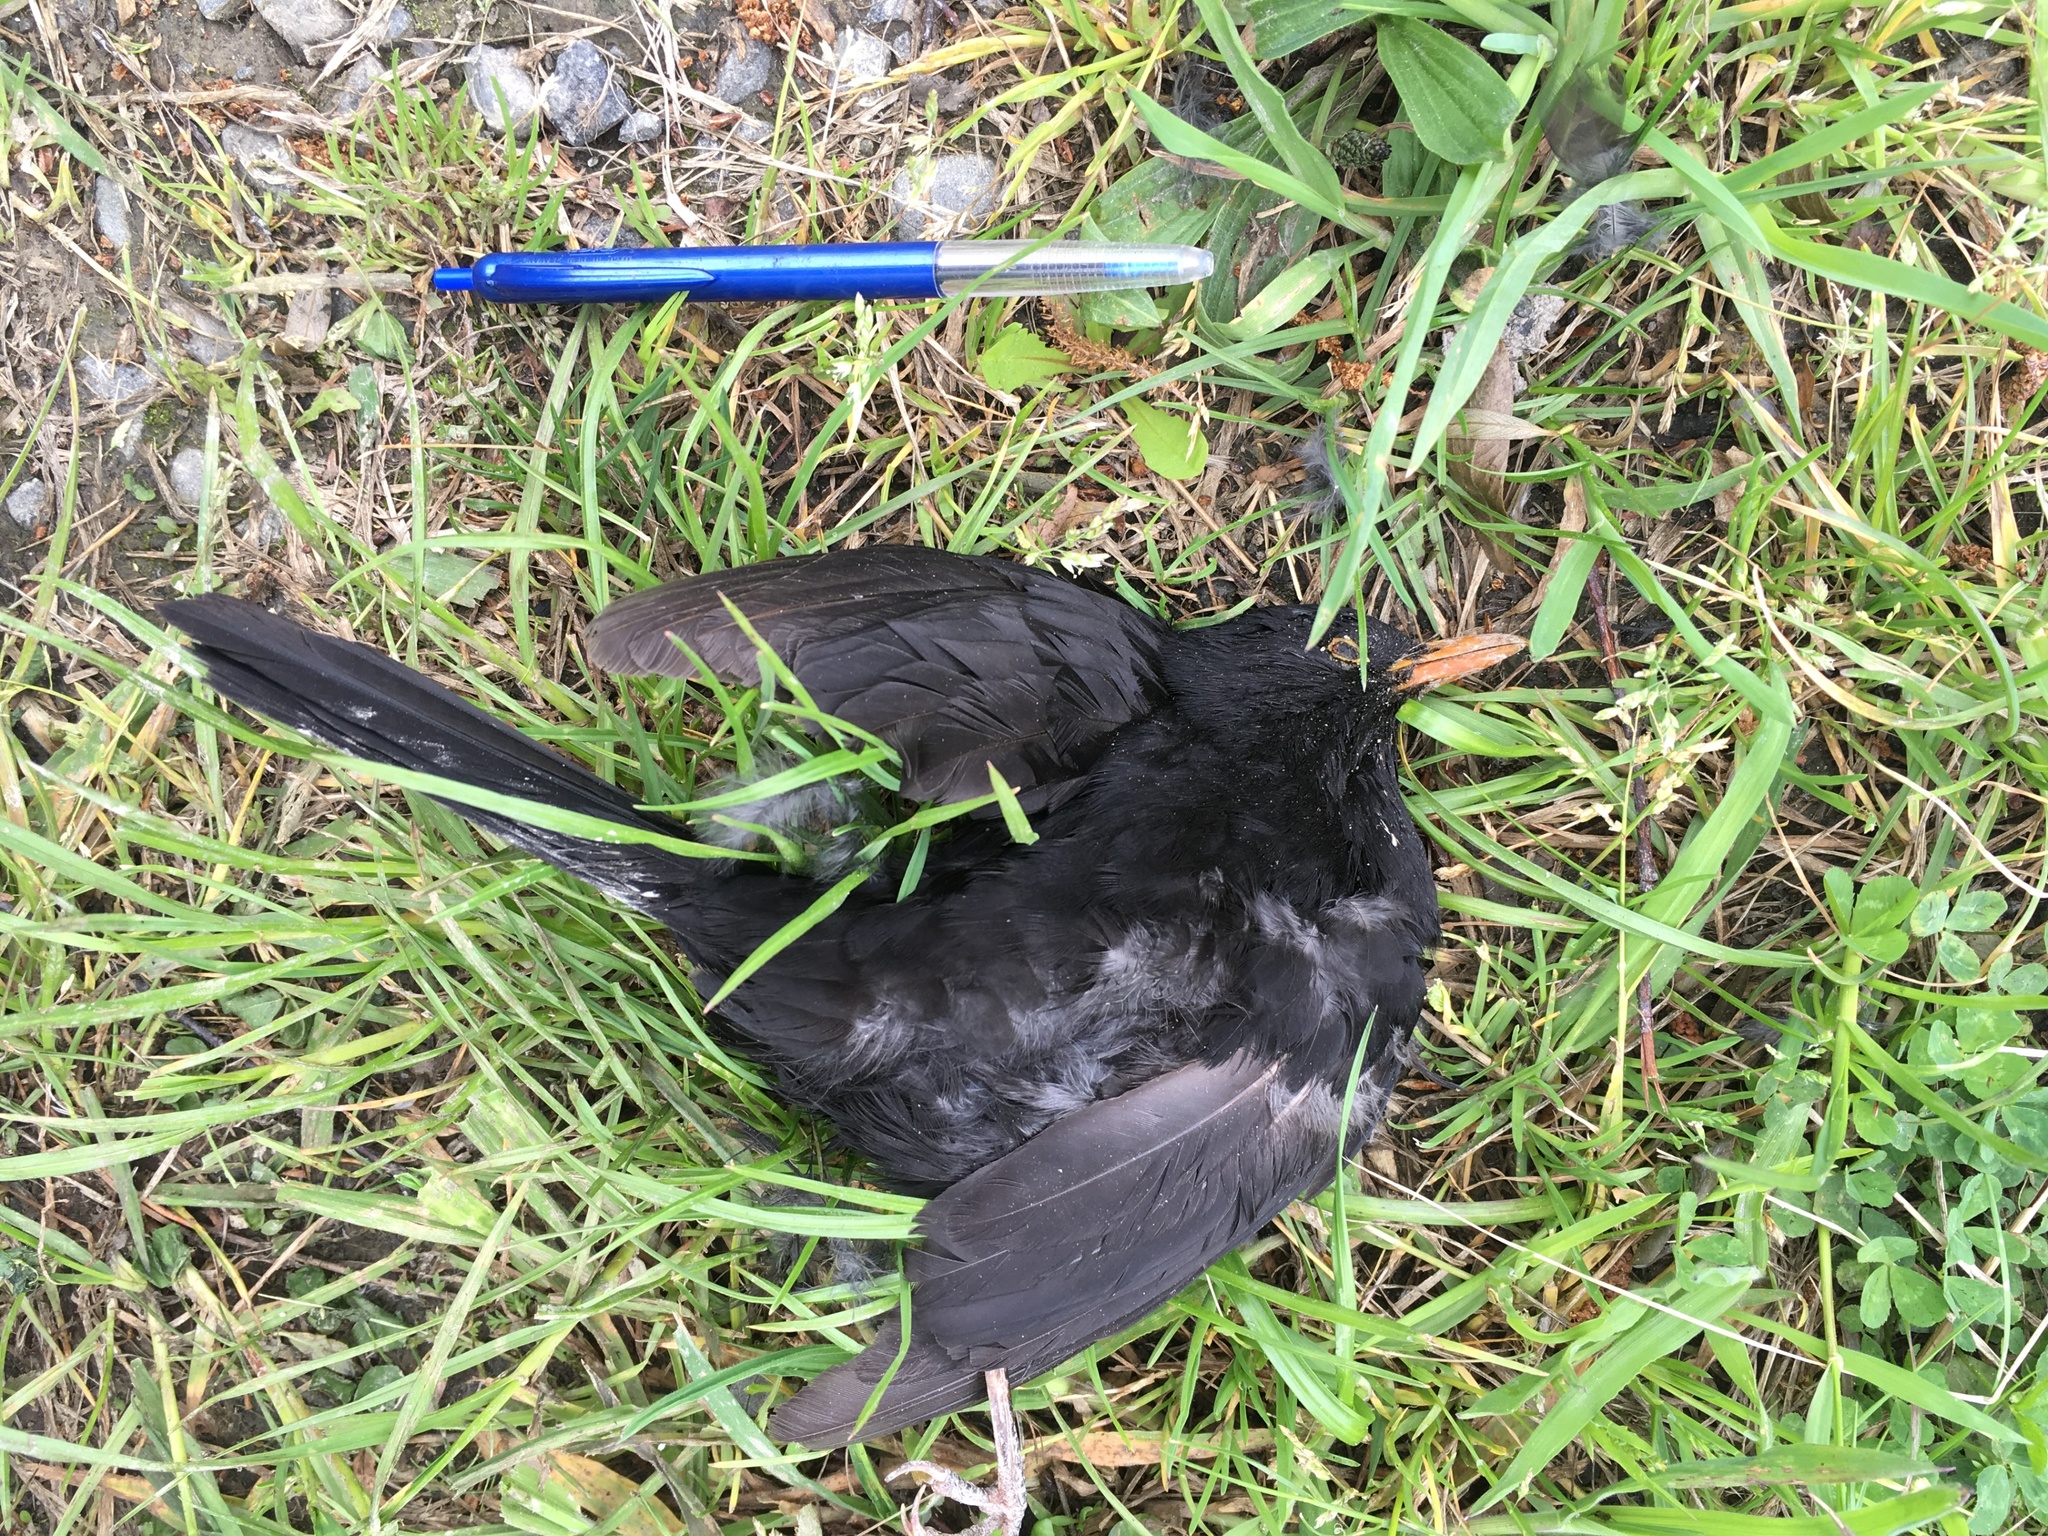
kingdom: Animalia
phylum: Chordata
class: Aves
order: Passeriformes
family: Turdidae
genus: Turdus
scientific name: Turdus merula
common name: Common blackbird
